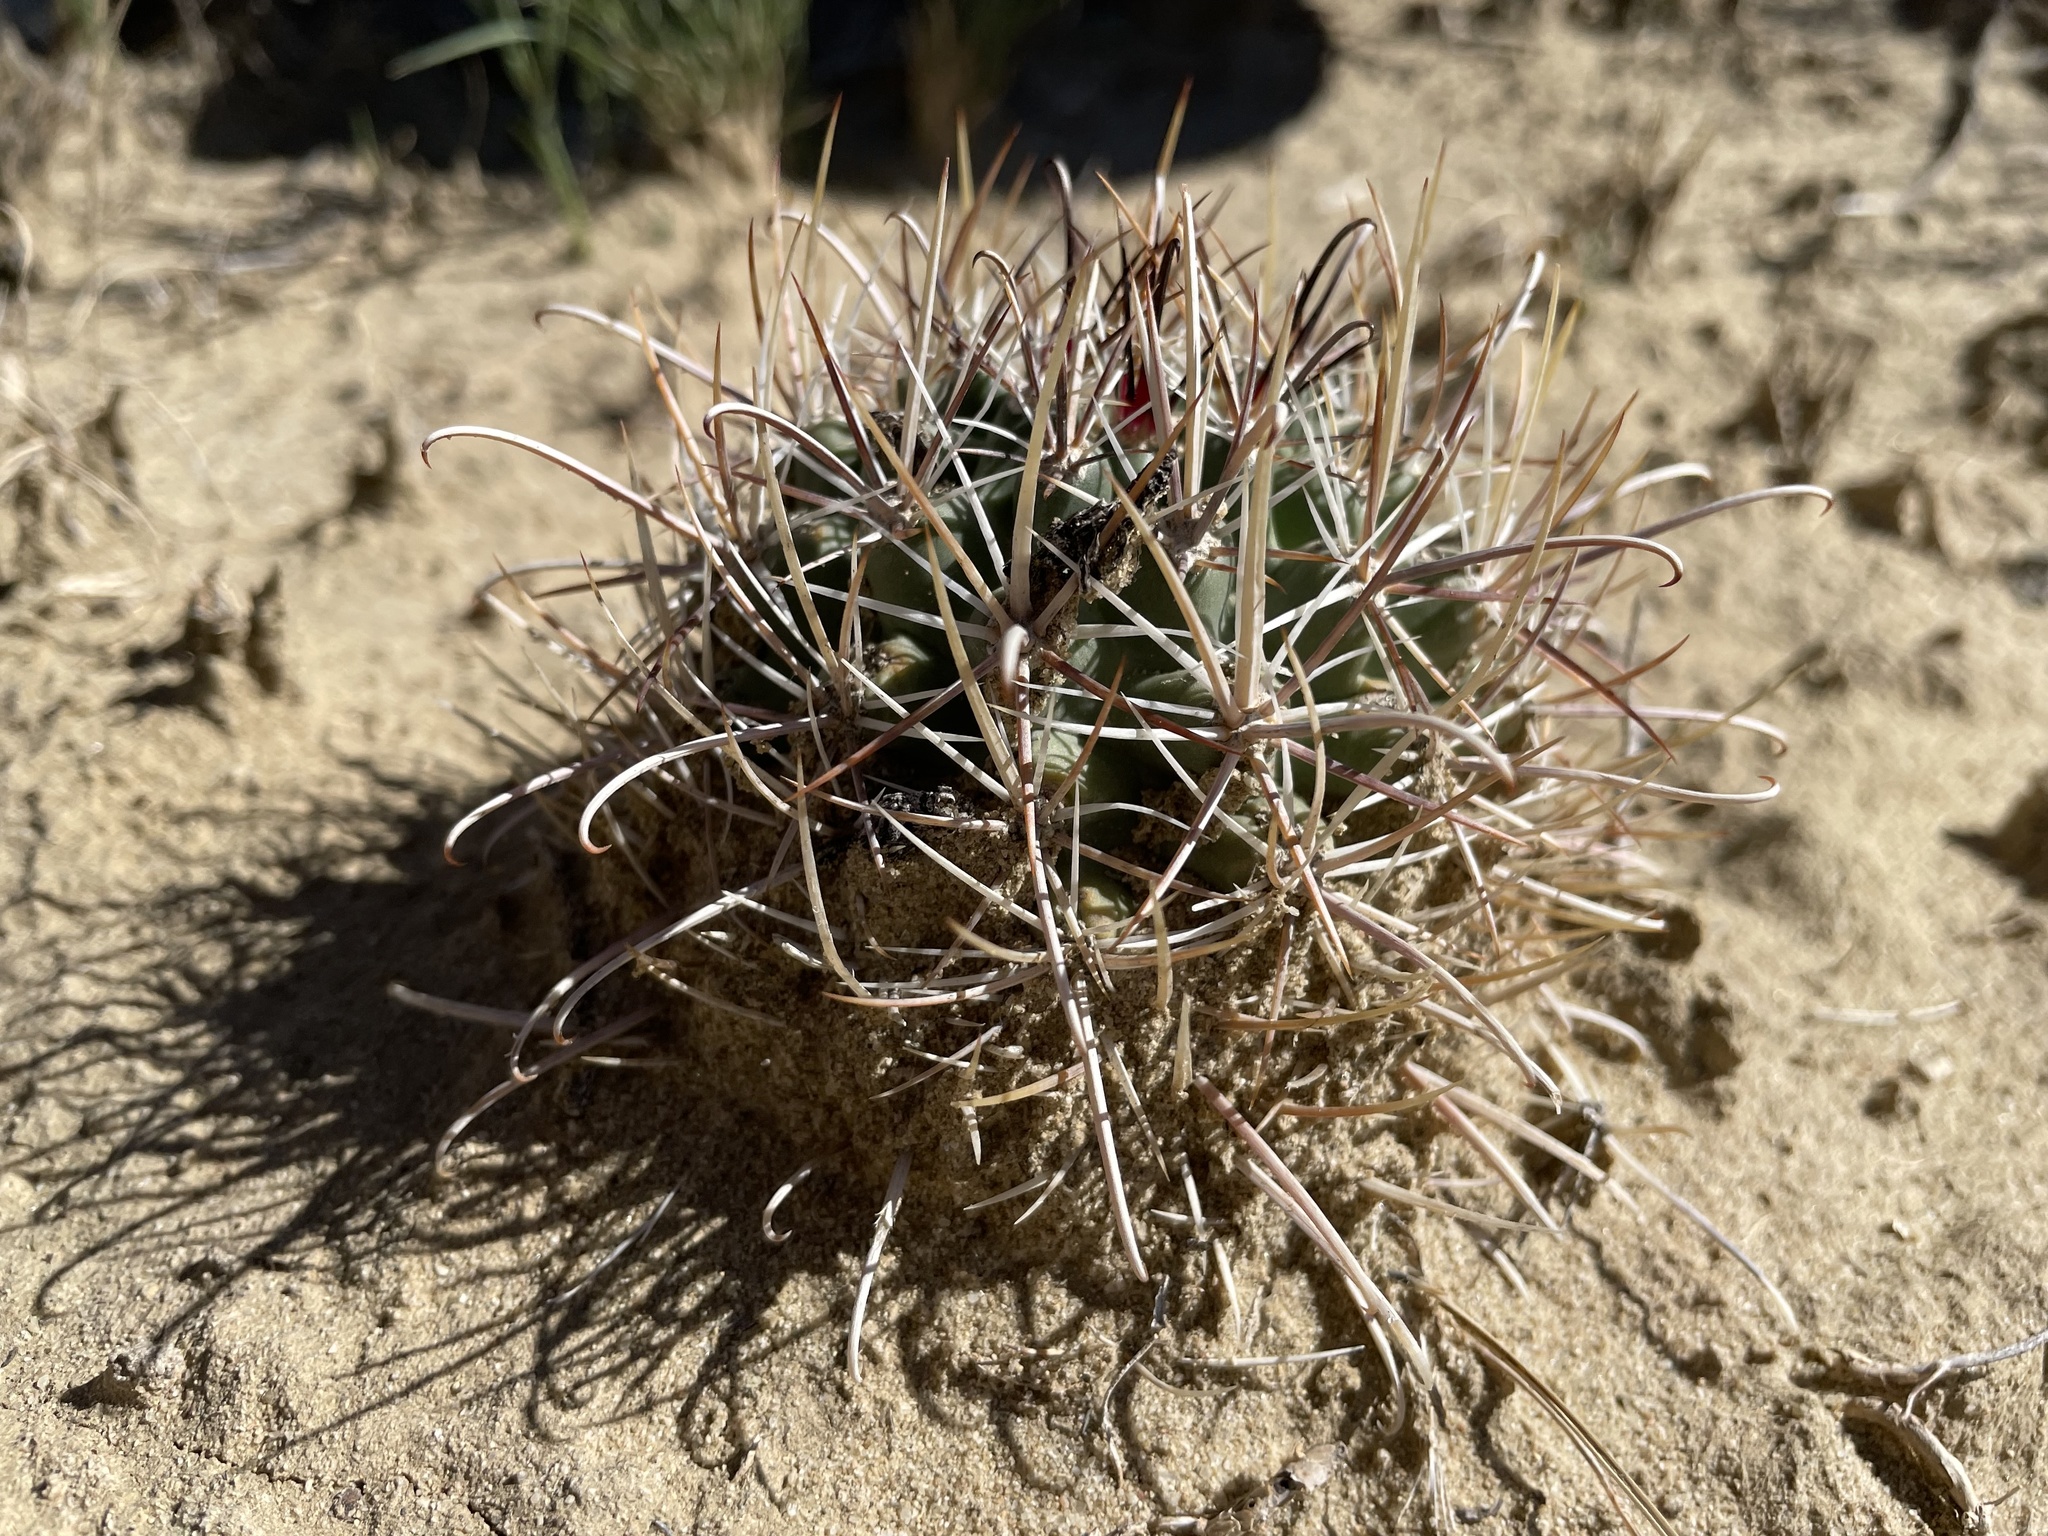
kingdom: Plantae
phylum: Tracheophyta
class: Magnoliopsida
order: Caryophyllales
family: Cactaceae
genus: Sclerocactus
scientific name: Sclerocactus cloverae
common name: Clover's eagle-claw cactus
